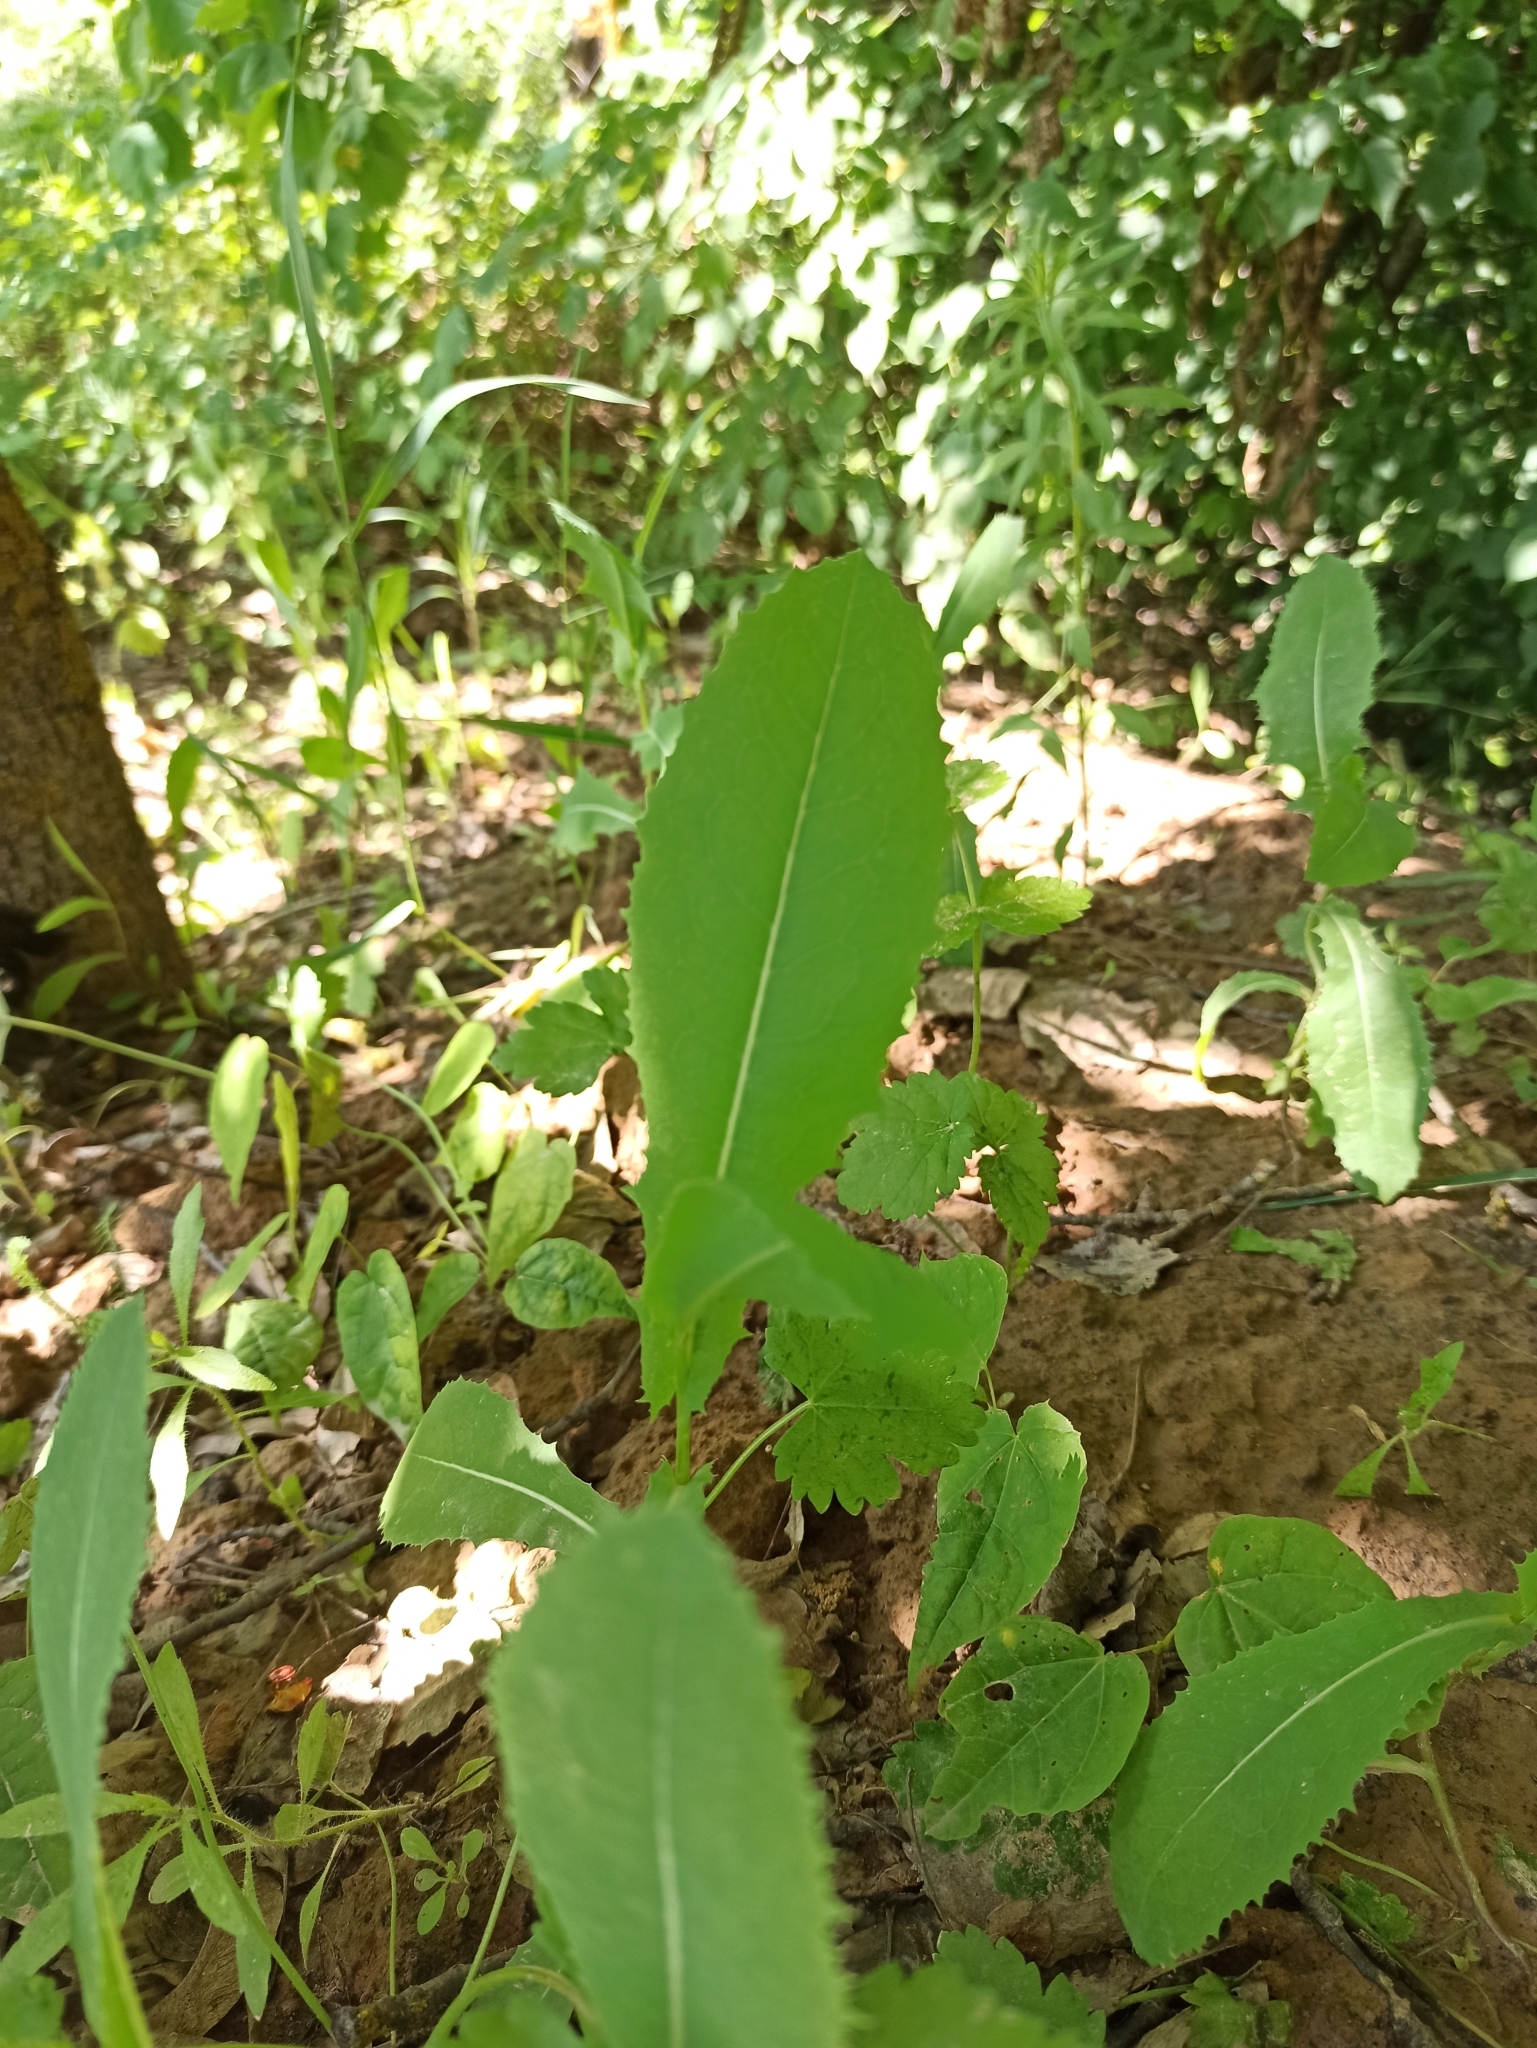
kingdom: Plantae
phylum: Tracheophyta
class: Magnoliopsida
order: Asterales
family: Asteraceae
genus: Lactuca
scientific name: Lactuca serriola
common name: Prickly lettuce
